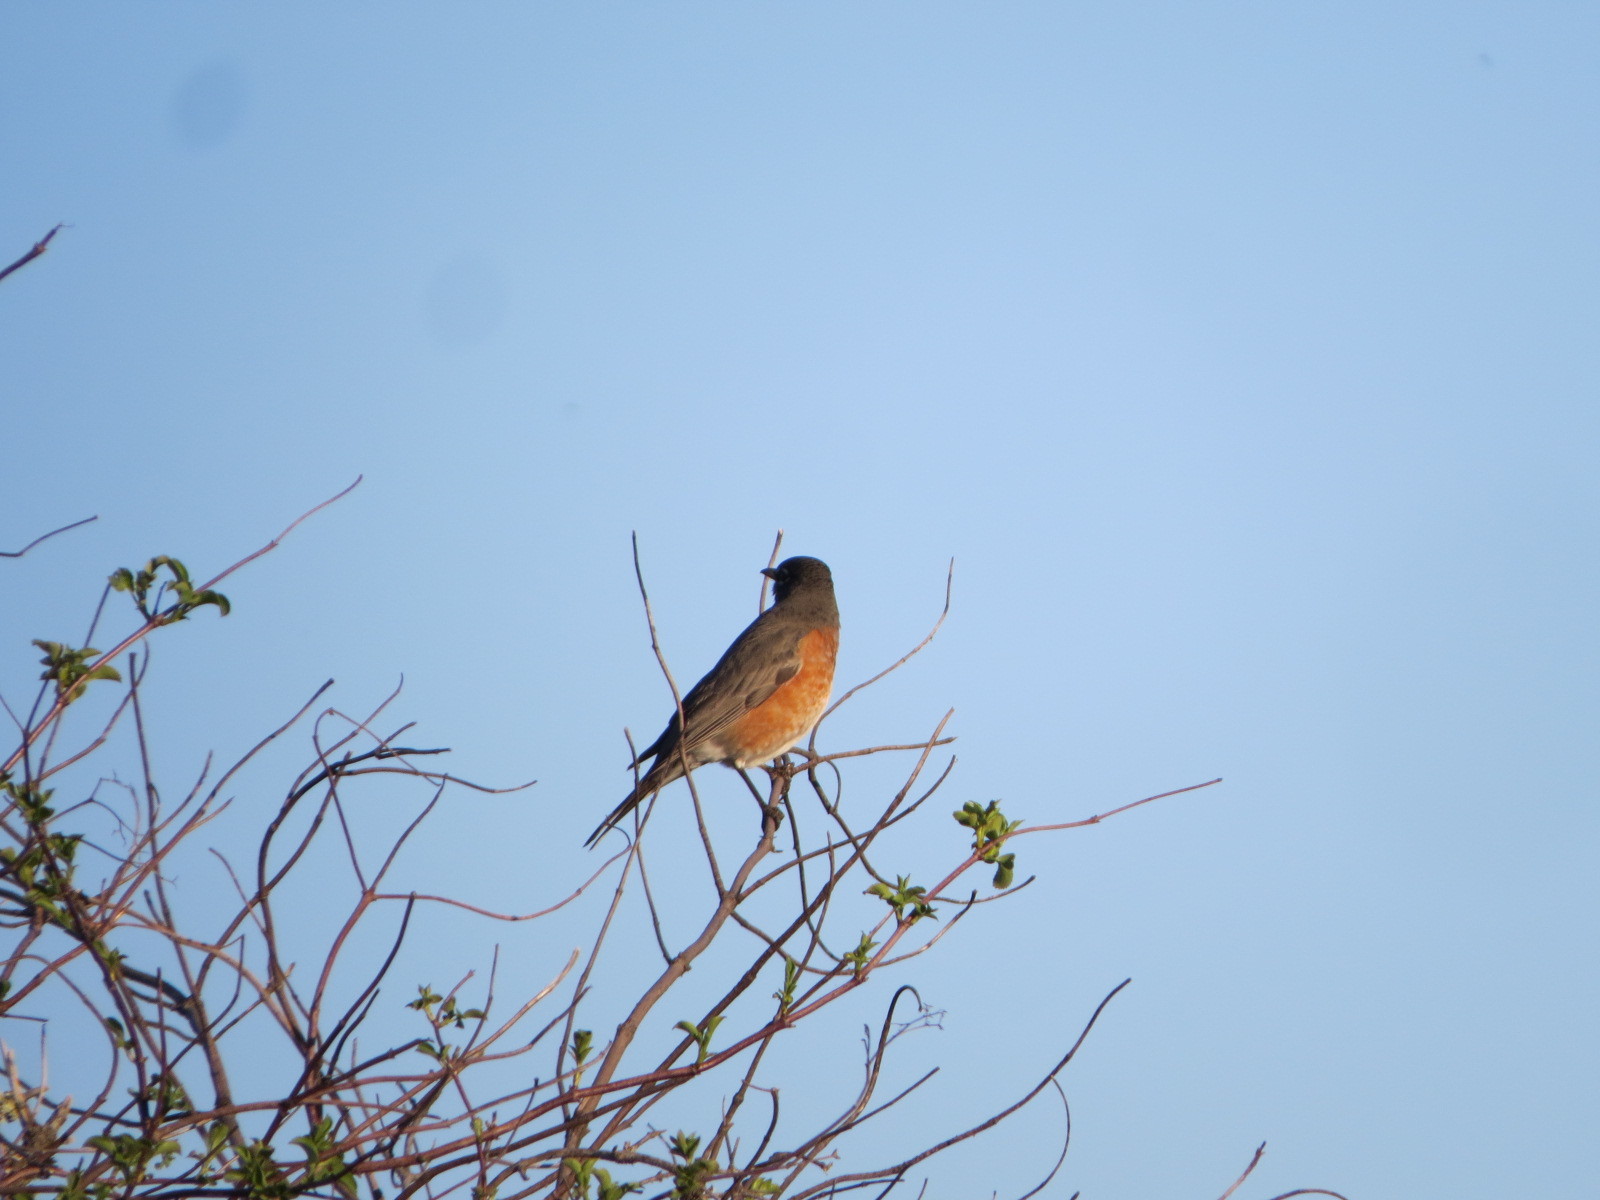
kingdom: Animalia
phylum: Chordata
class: Aves
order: Passeriformes
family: Turdidae
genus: Turdus
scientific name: Turdus migratorius
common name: American robin
